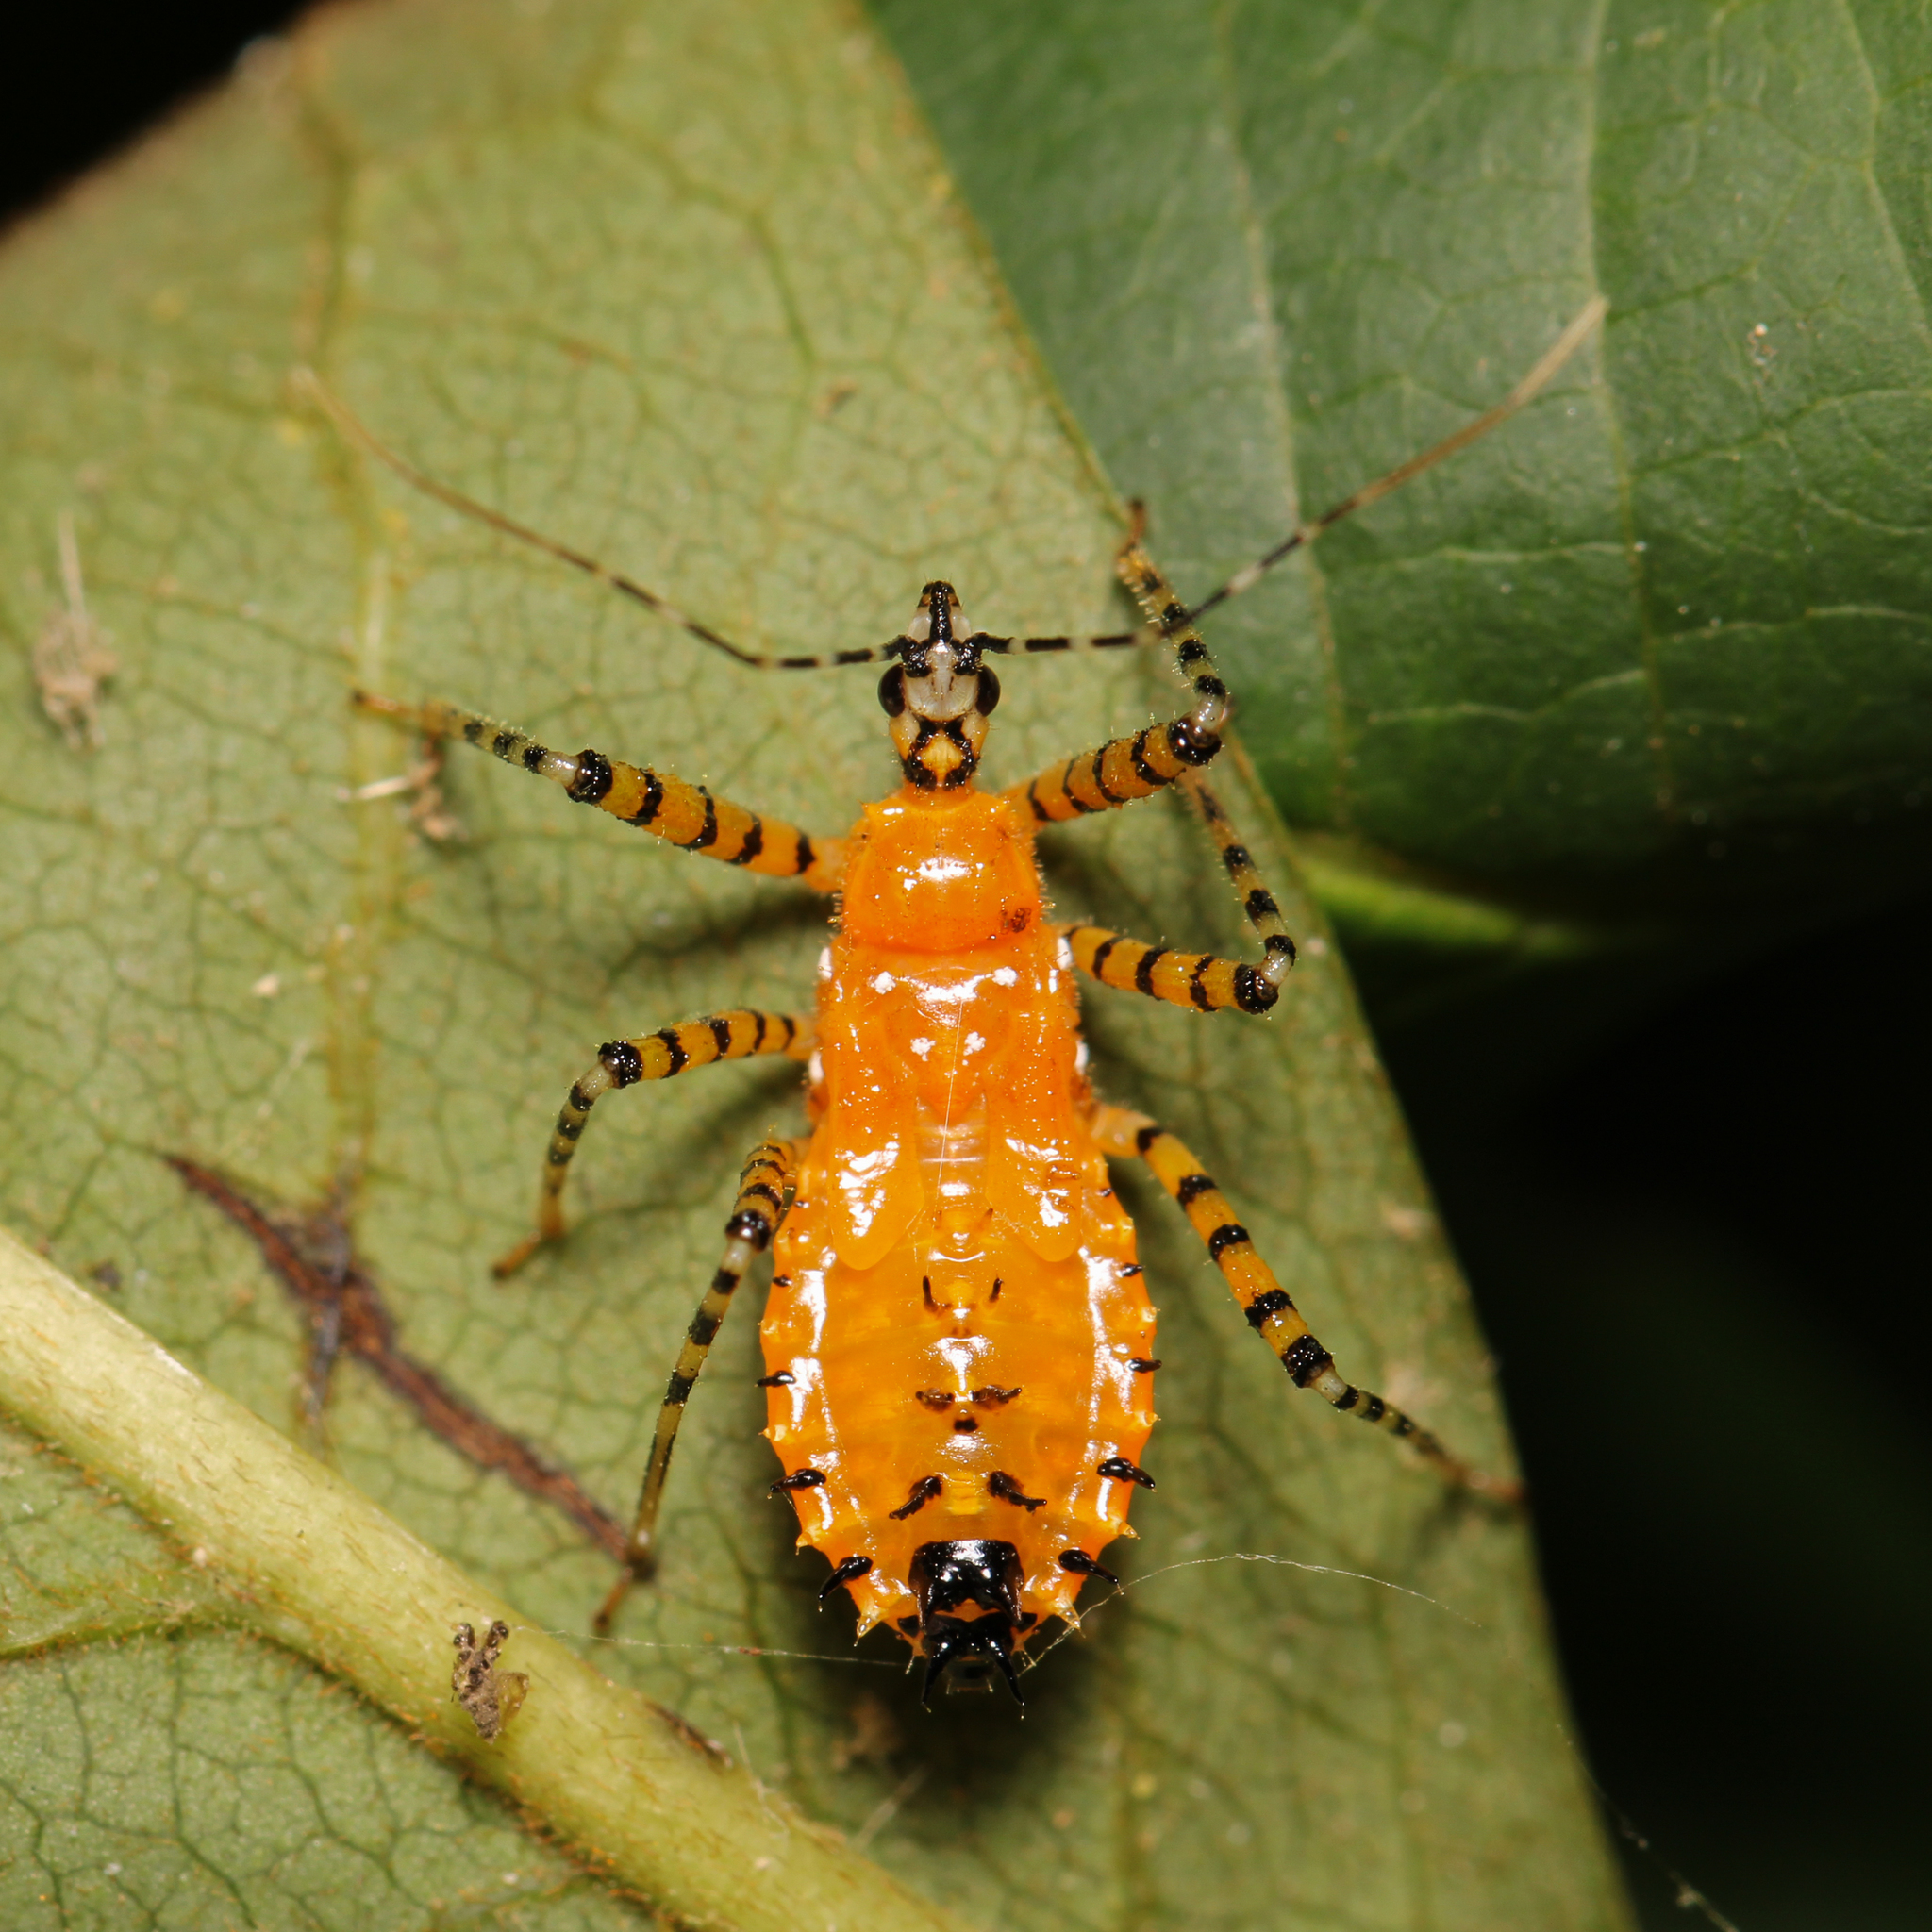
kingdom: Animalia
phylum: Arthropoda
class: Insecta
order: Hemiptera
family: Reduviidae
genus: Pselliopus
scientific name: Pselliopus barberi
